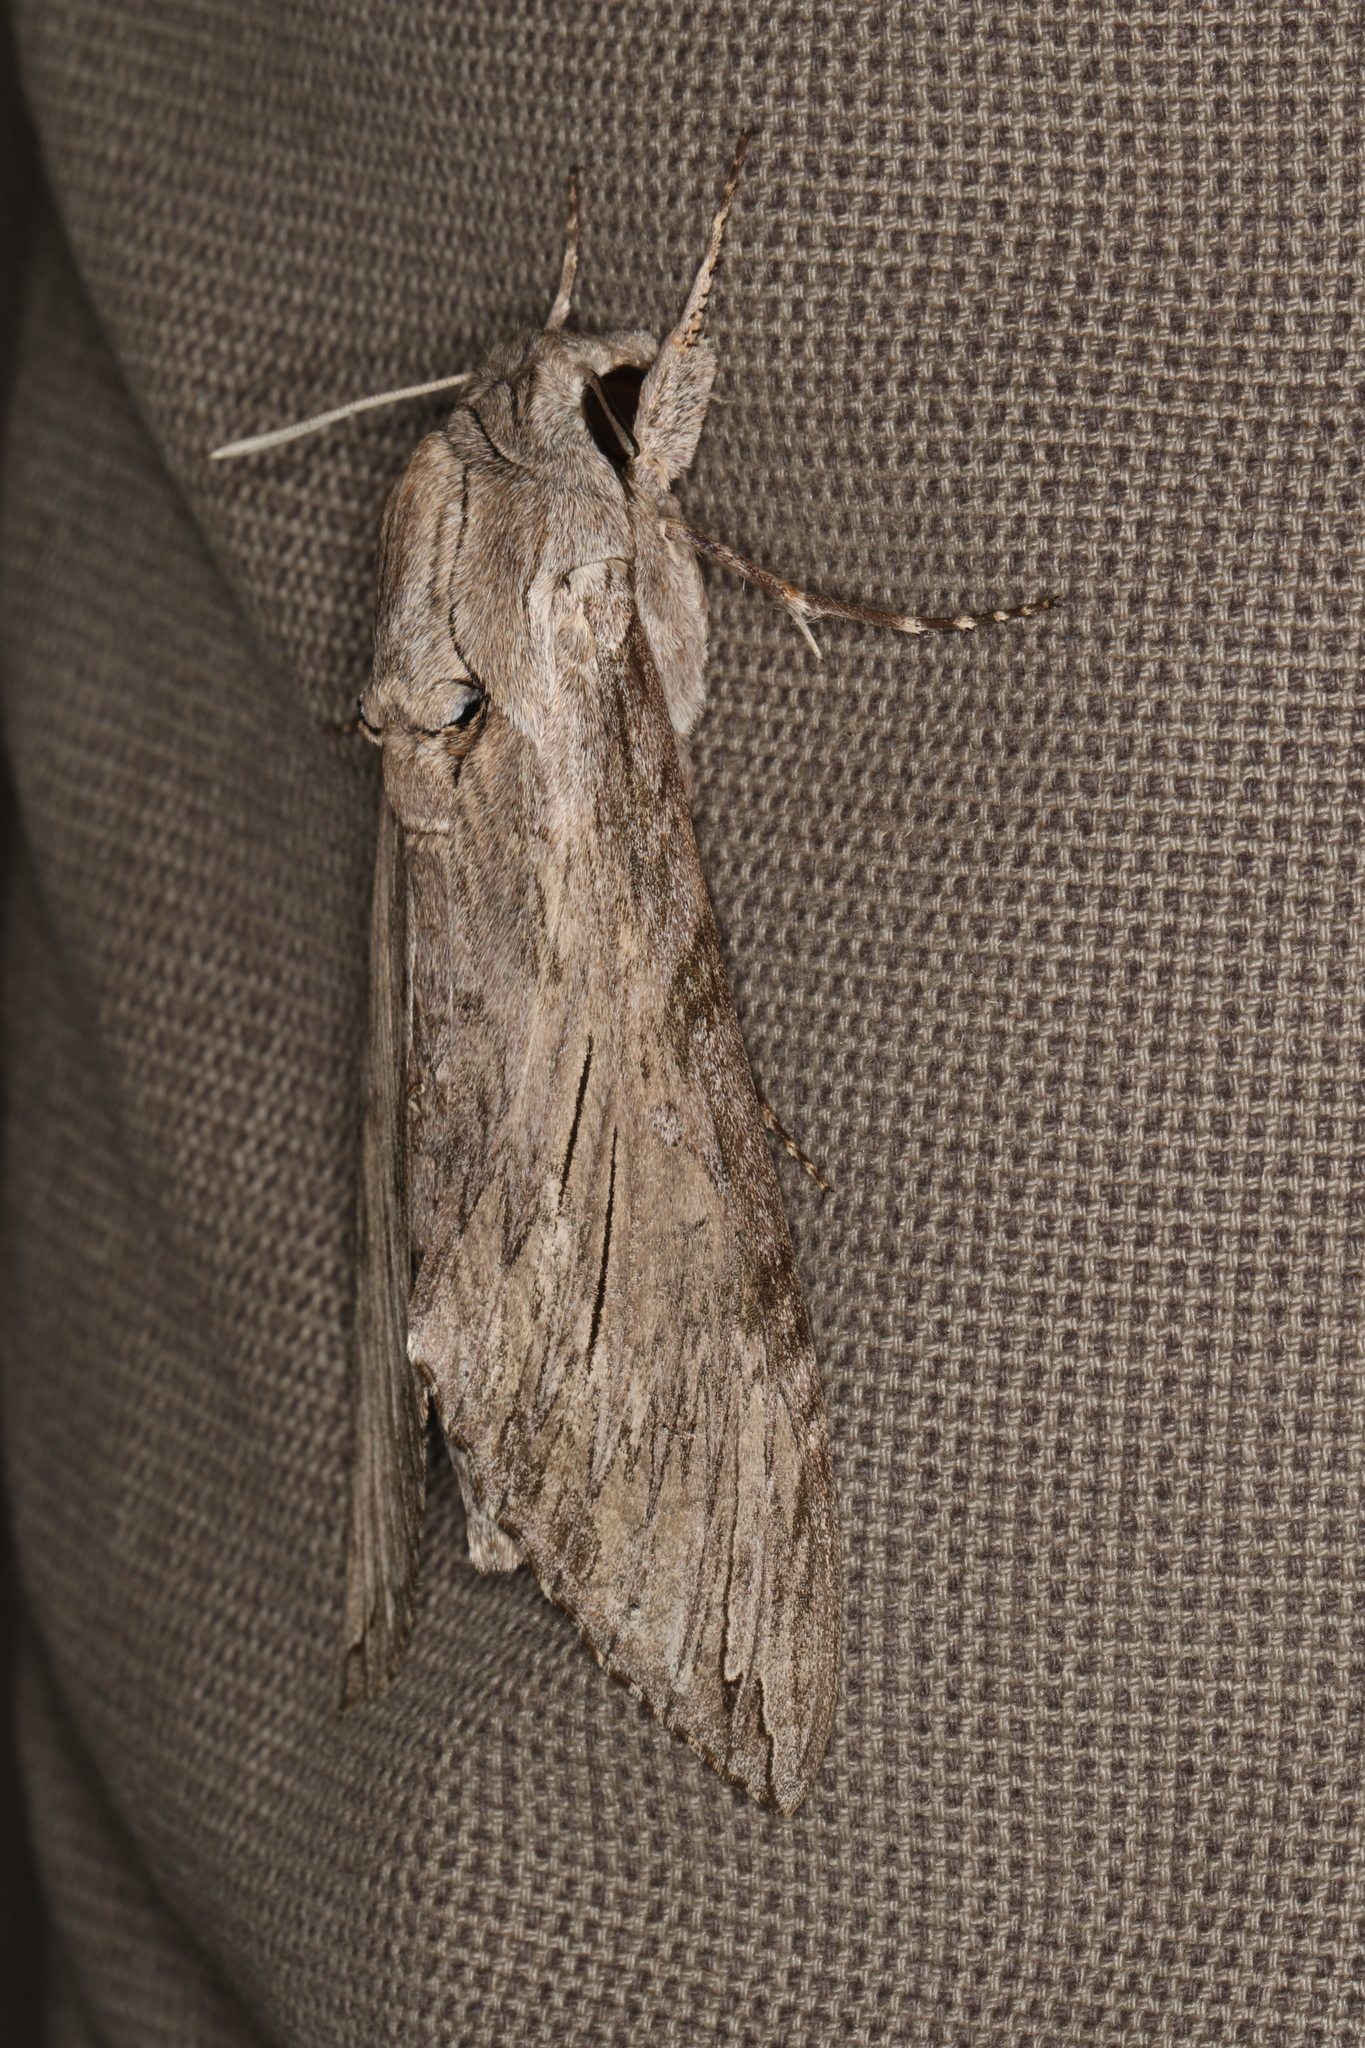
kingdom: Animalia
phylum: Arthropoda
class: Insecta
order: Lepidoptera
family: Sphingidae
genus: Agrius
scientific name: Agrius convolvuli
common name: Convolvulus hawkmoth
